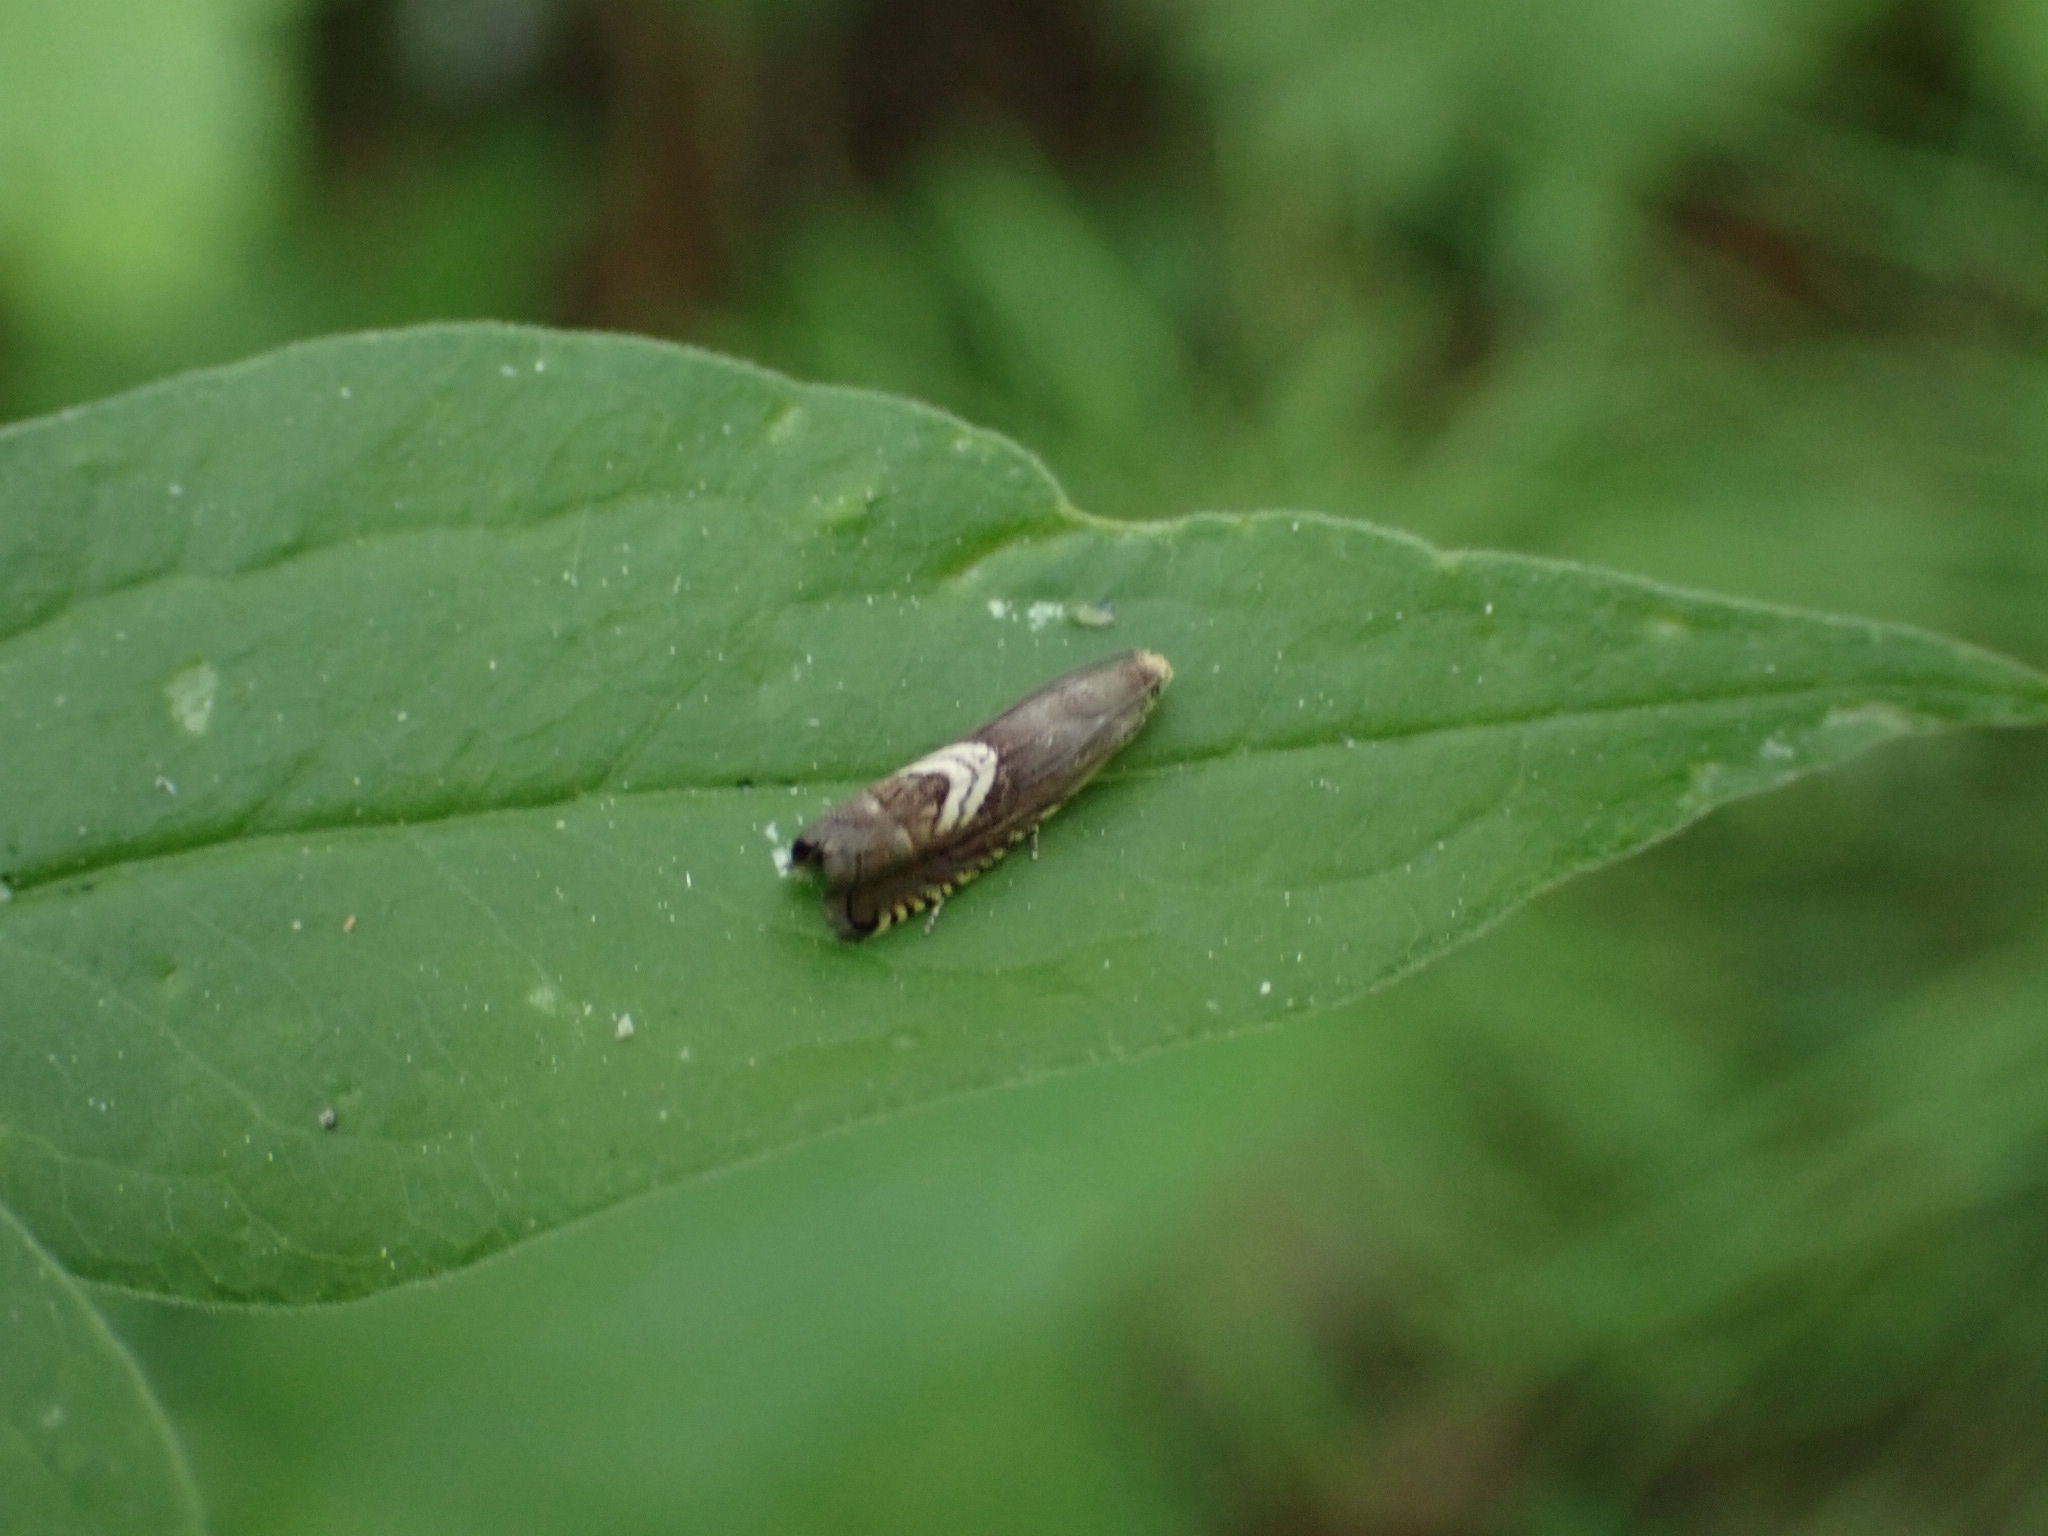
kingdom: Animalia
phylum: Arthropoda
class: Insecta
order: Lepidoptera
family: Tortricidae
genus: Grapholita
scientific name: Grapholita nigrostriana
